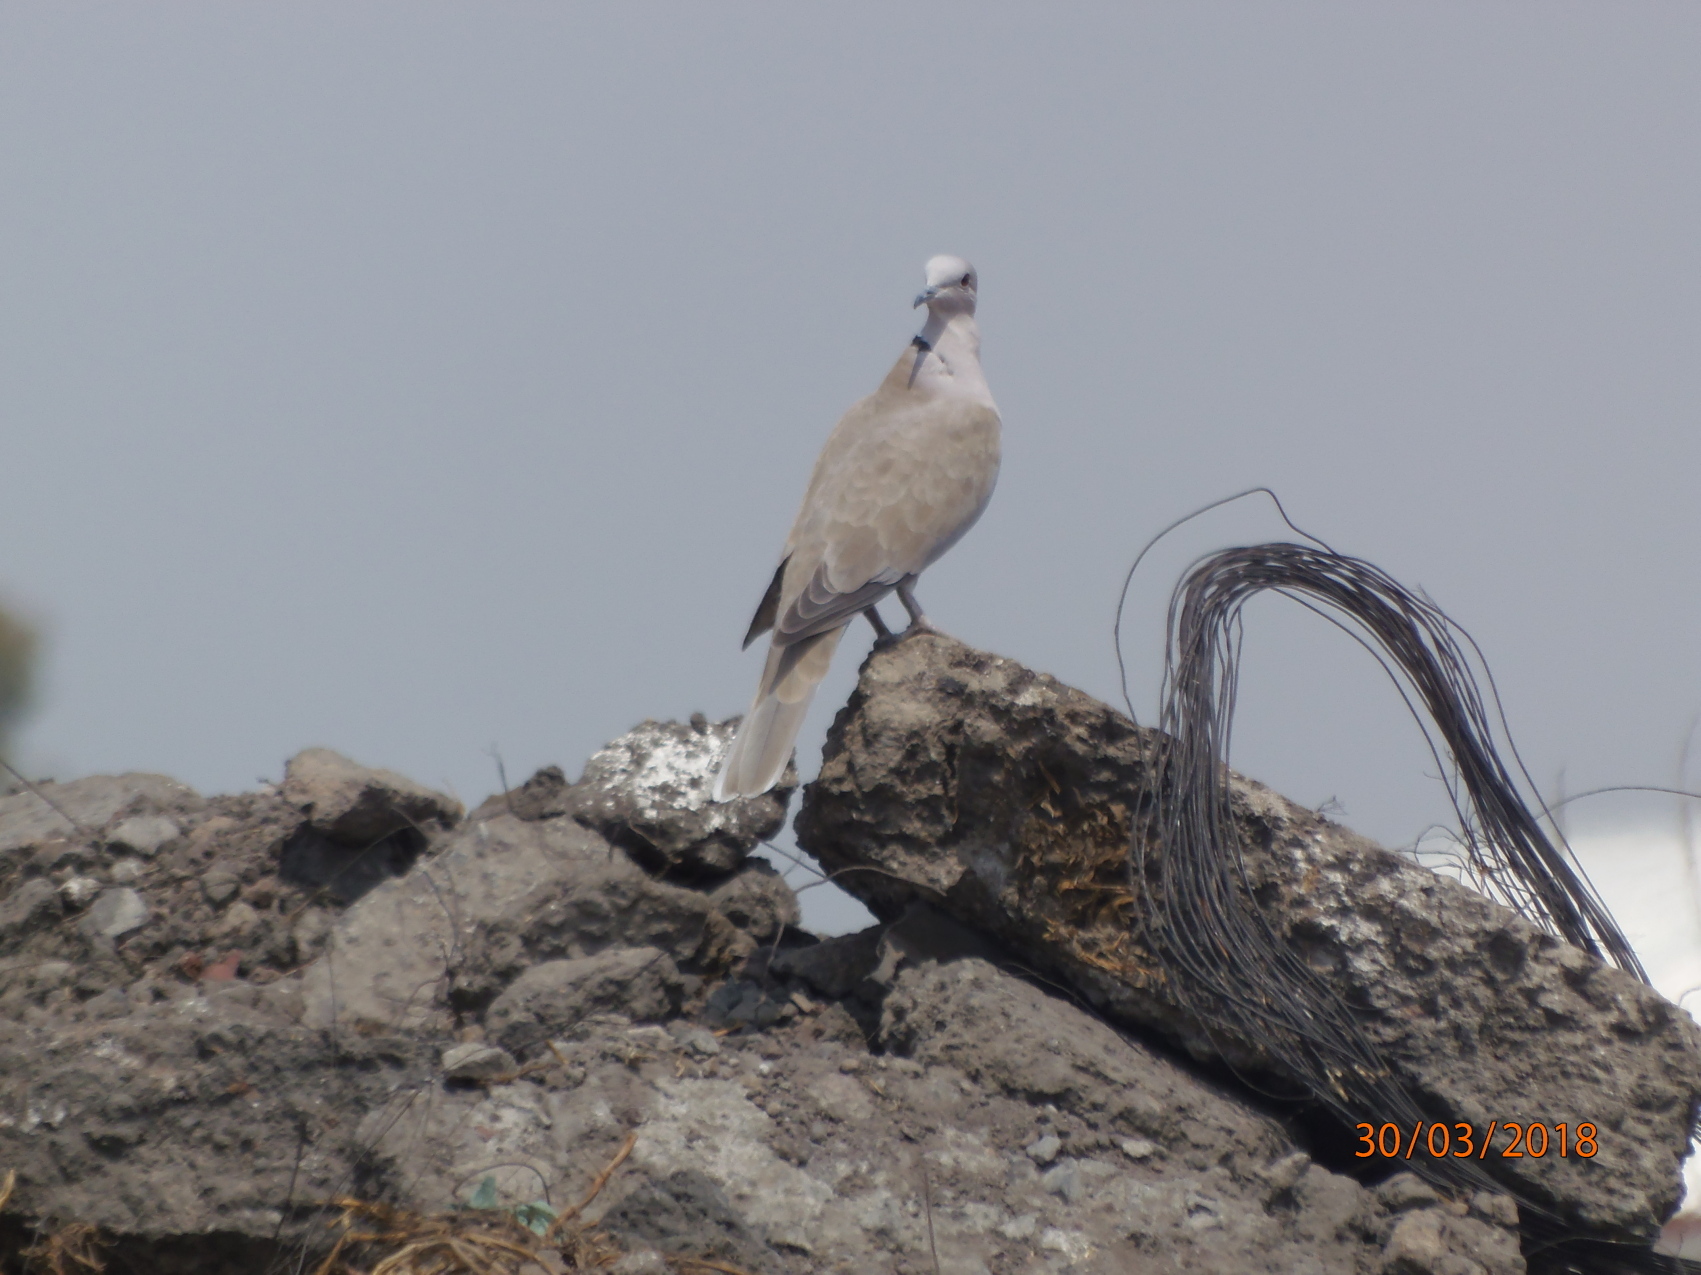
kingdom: Animalia
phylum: Chordata
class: Aves
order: Columbiformes
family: Columbidae
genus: Streptopelia
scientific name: Streptopelia decaocto
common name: Eurasian collared dove
